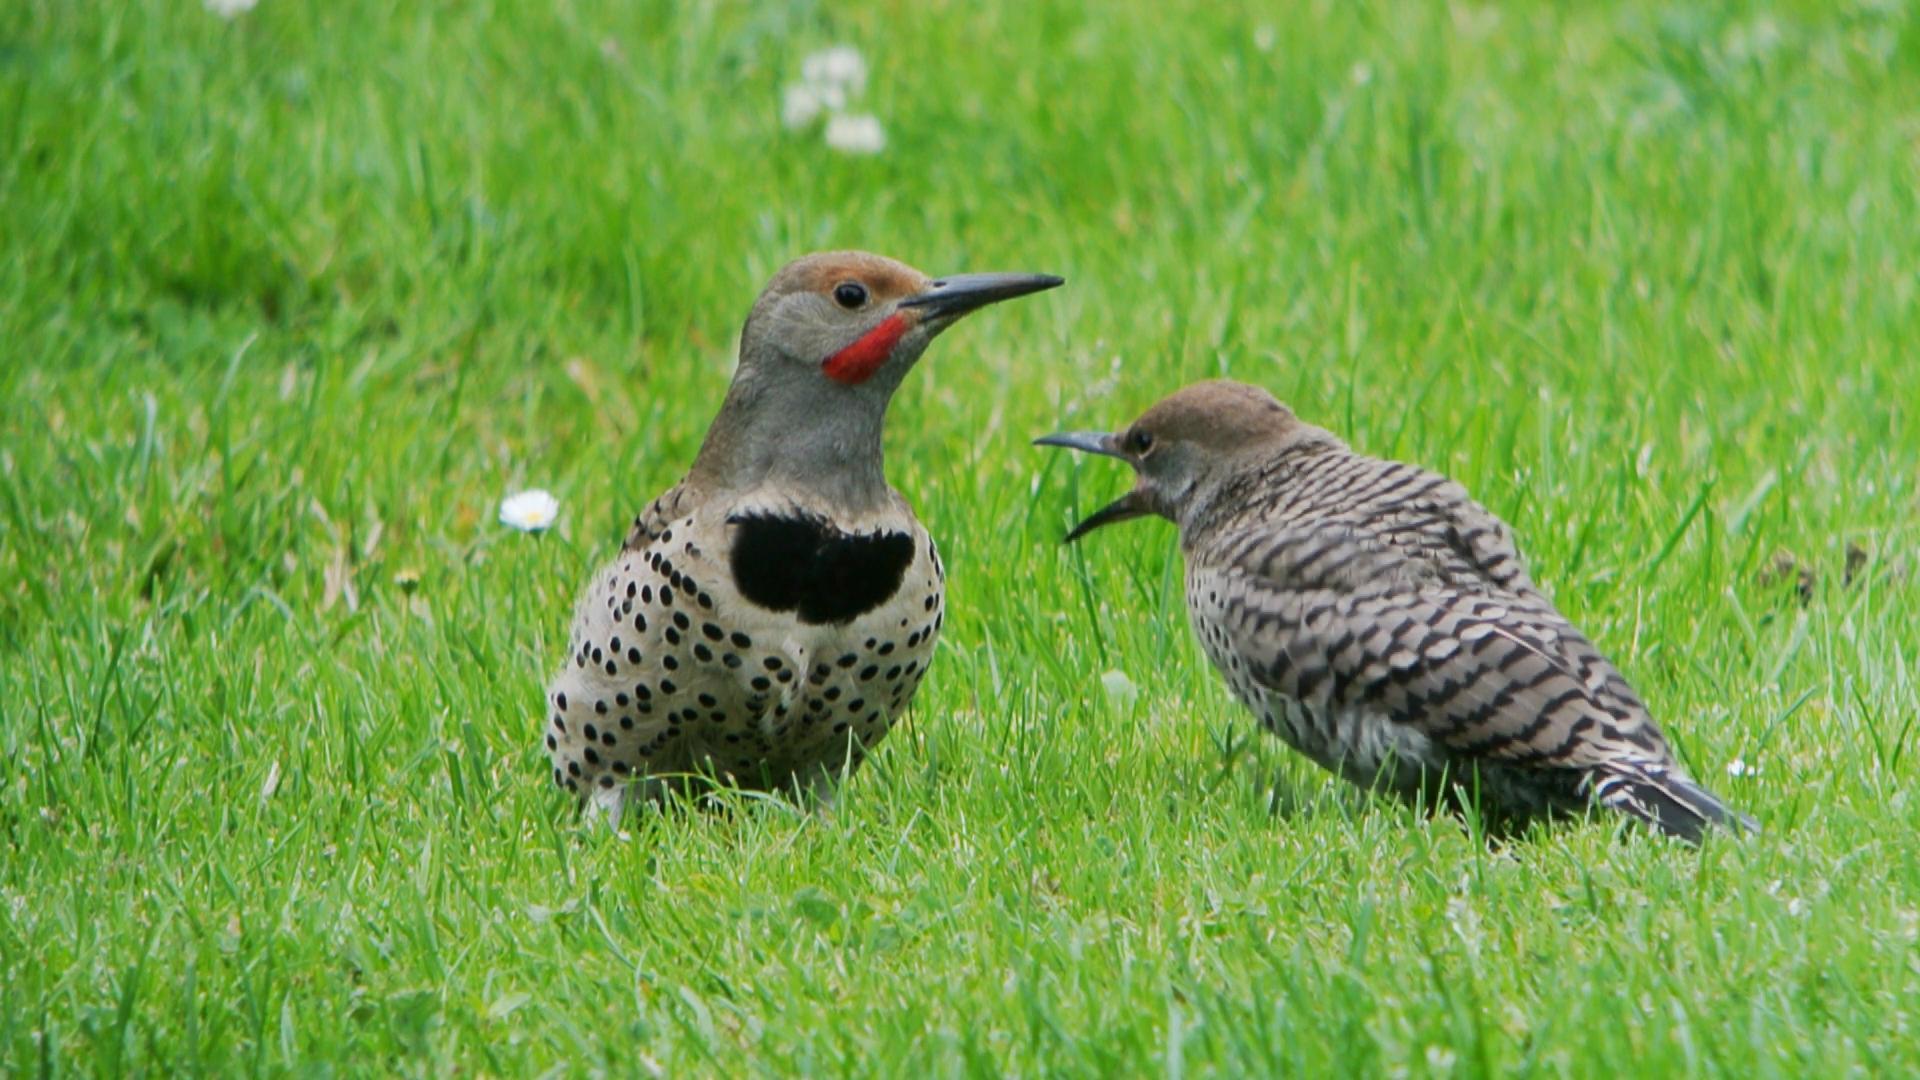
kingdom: Animalia
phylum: Chordata
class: Aves
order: Piciformes
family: Picidae
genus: Colaptes
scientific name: Colaptes auratus
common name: Northern flicker
